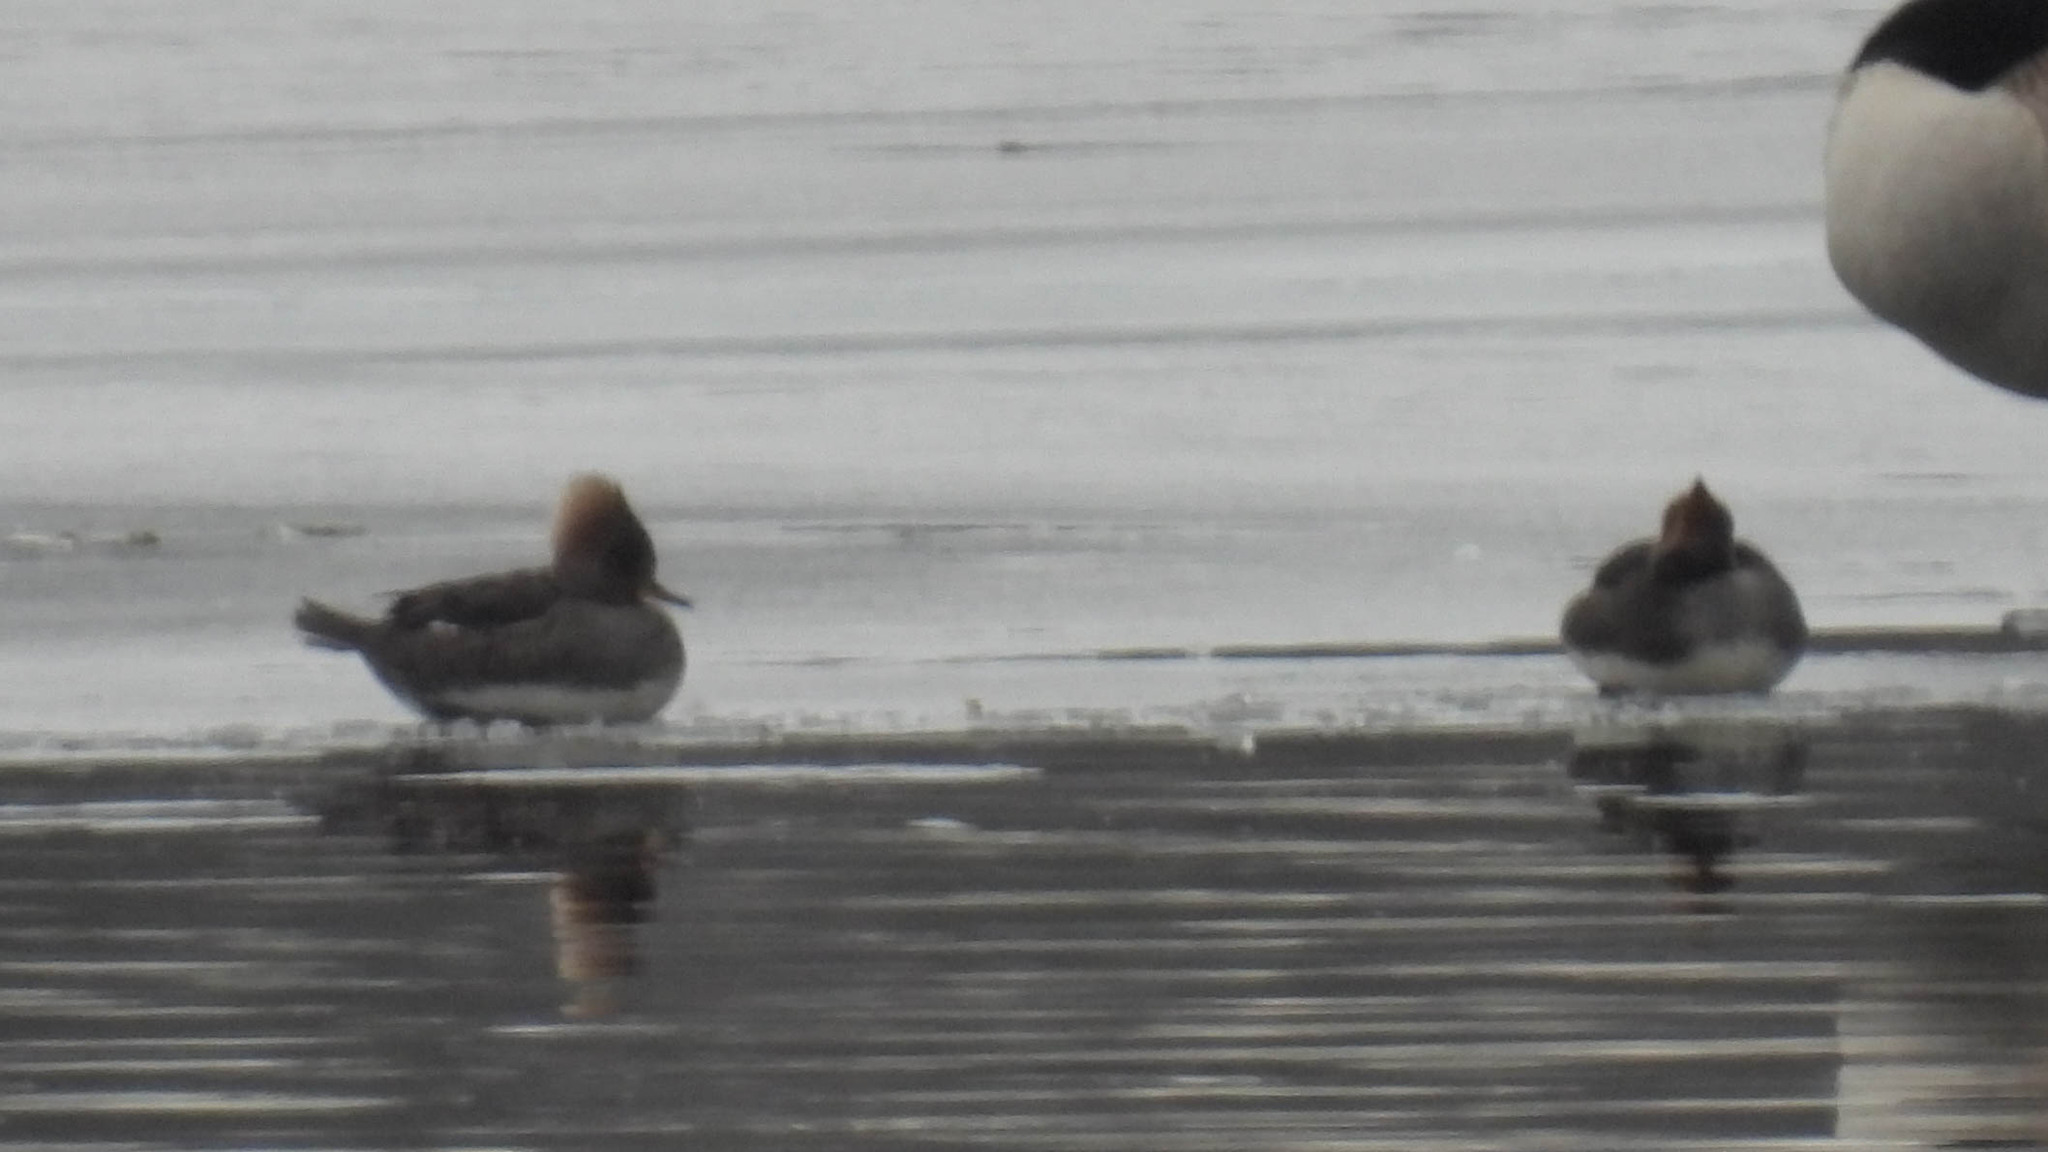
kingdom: Animalia
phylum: Chordata
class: Aves
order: Anseriformes
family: Anatidae
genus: Lophodytes
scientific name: Lophodytes cucullatus
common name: Hooded merganser
